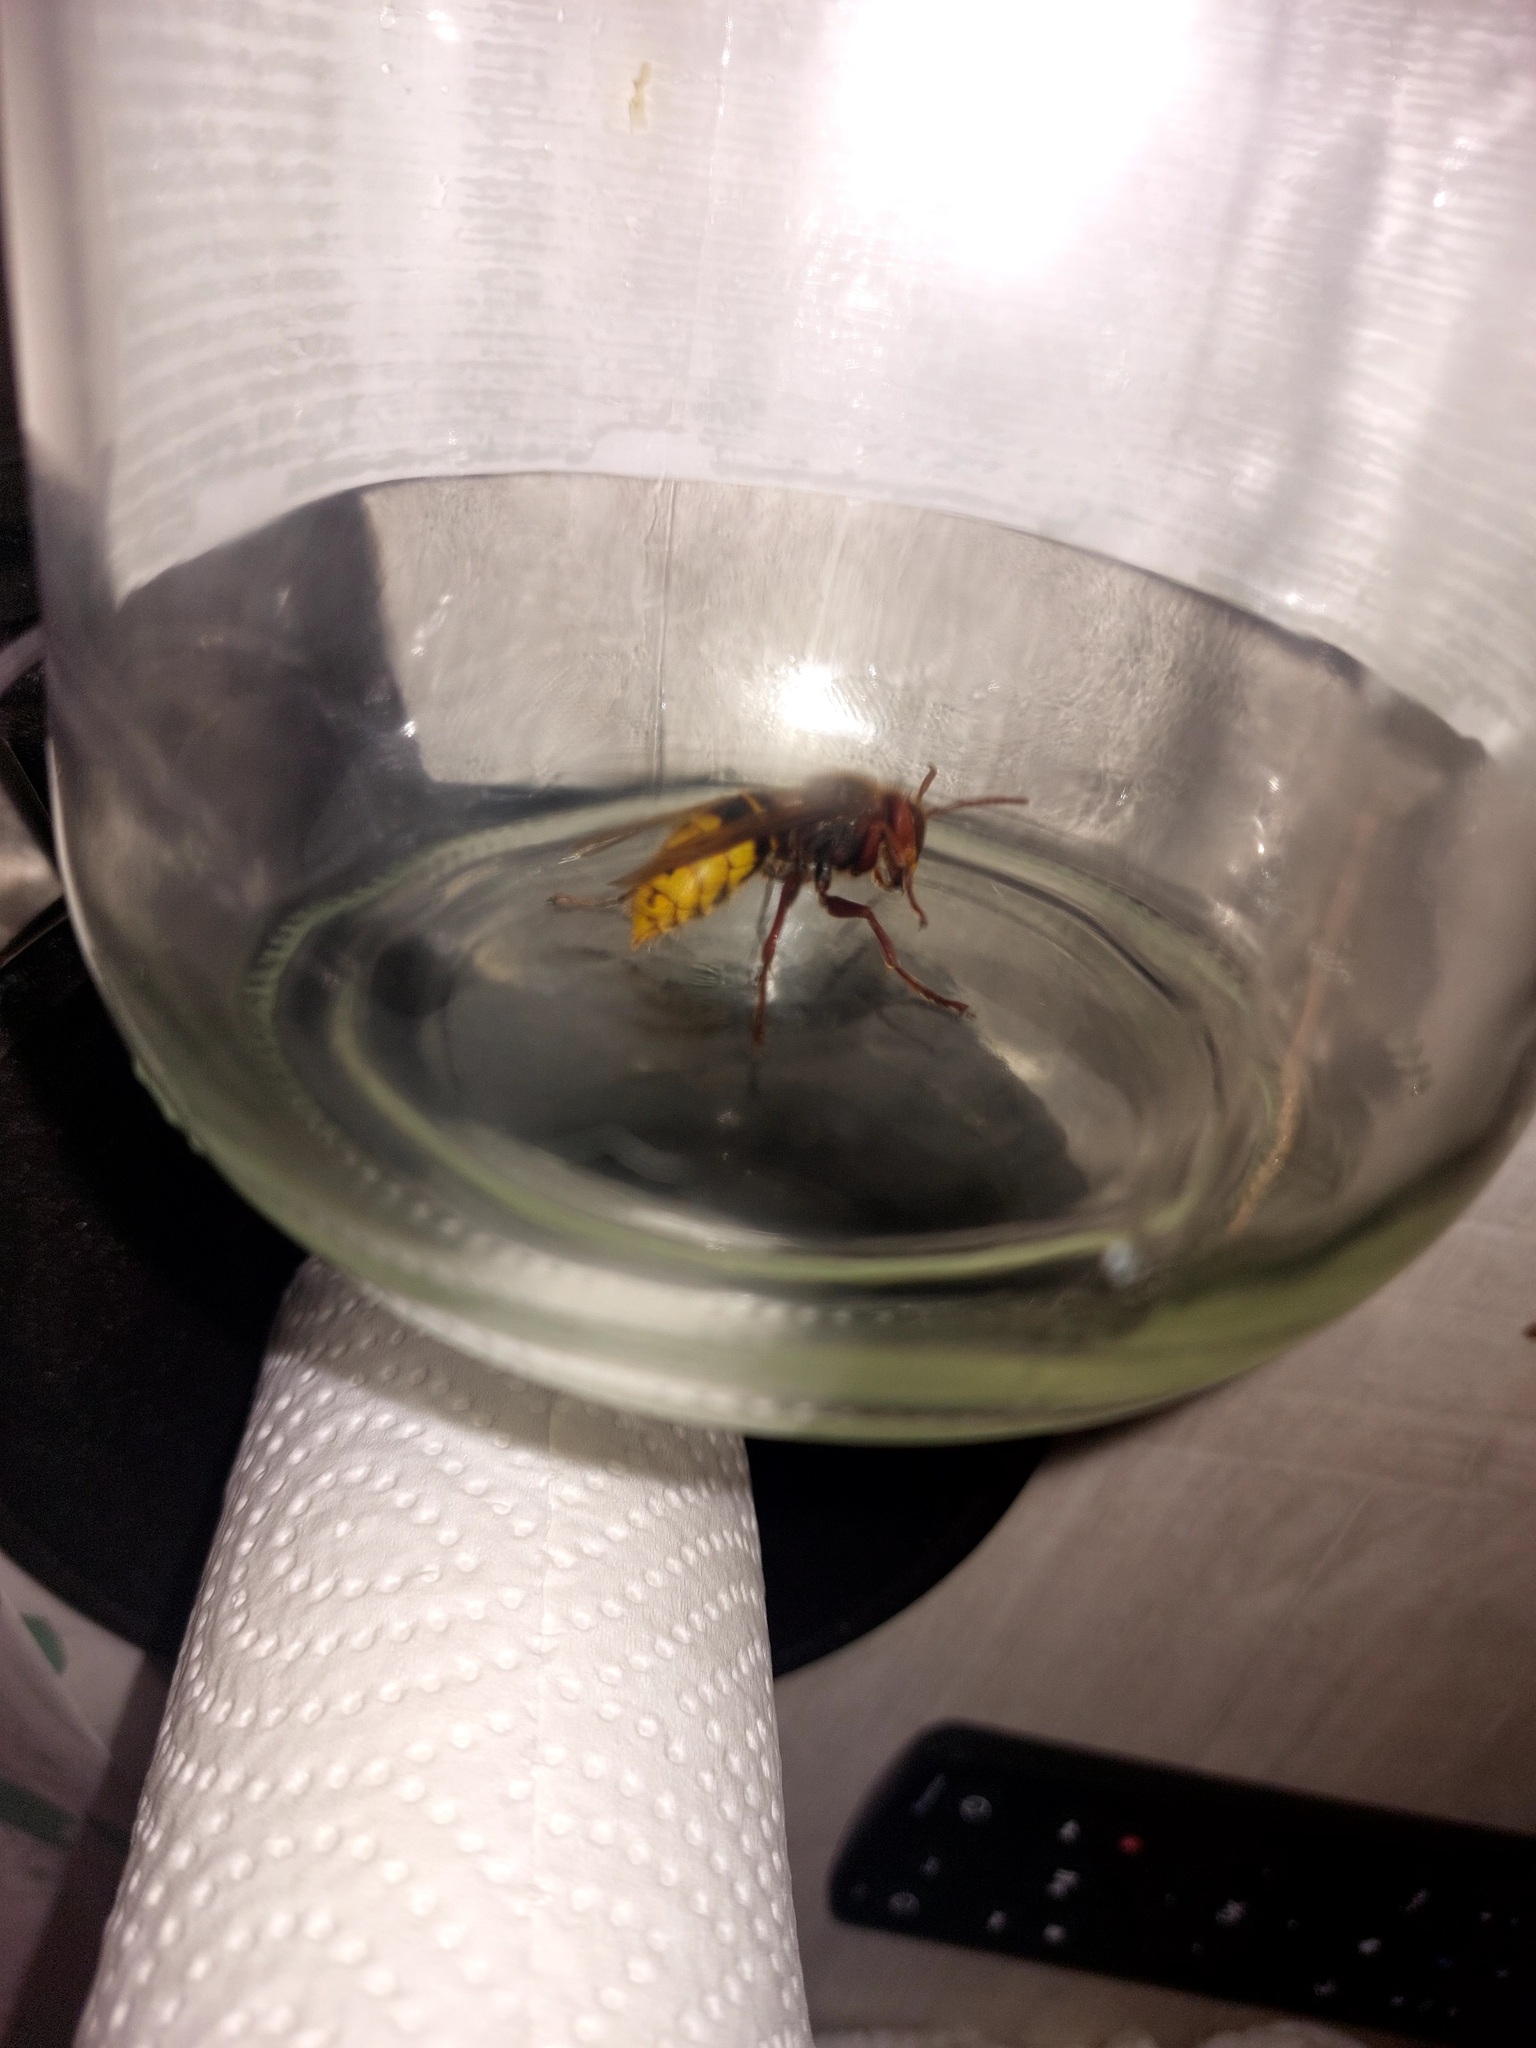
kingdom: Animalia
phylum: Arthropoda
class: Insecta
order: Hymenoptera
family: Vespidae
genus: Vespa
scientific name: Vespa crabro
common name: Hornet
